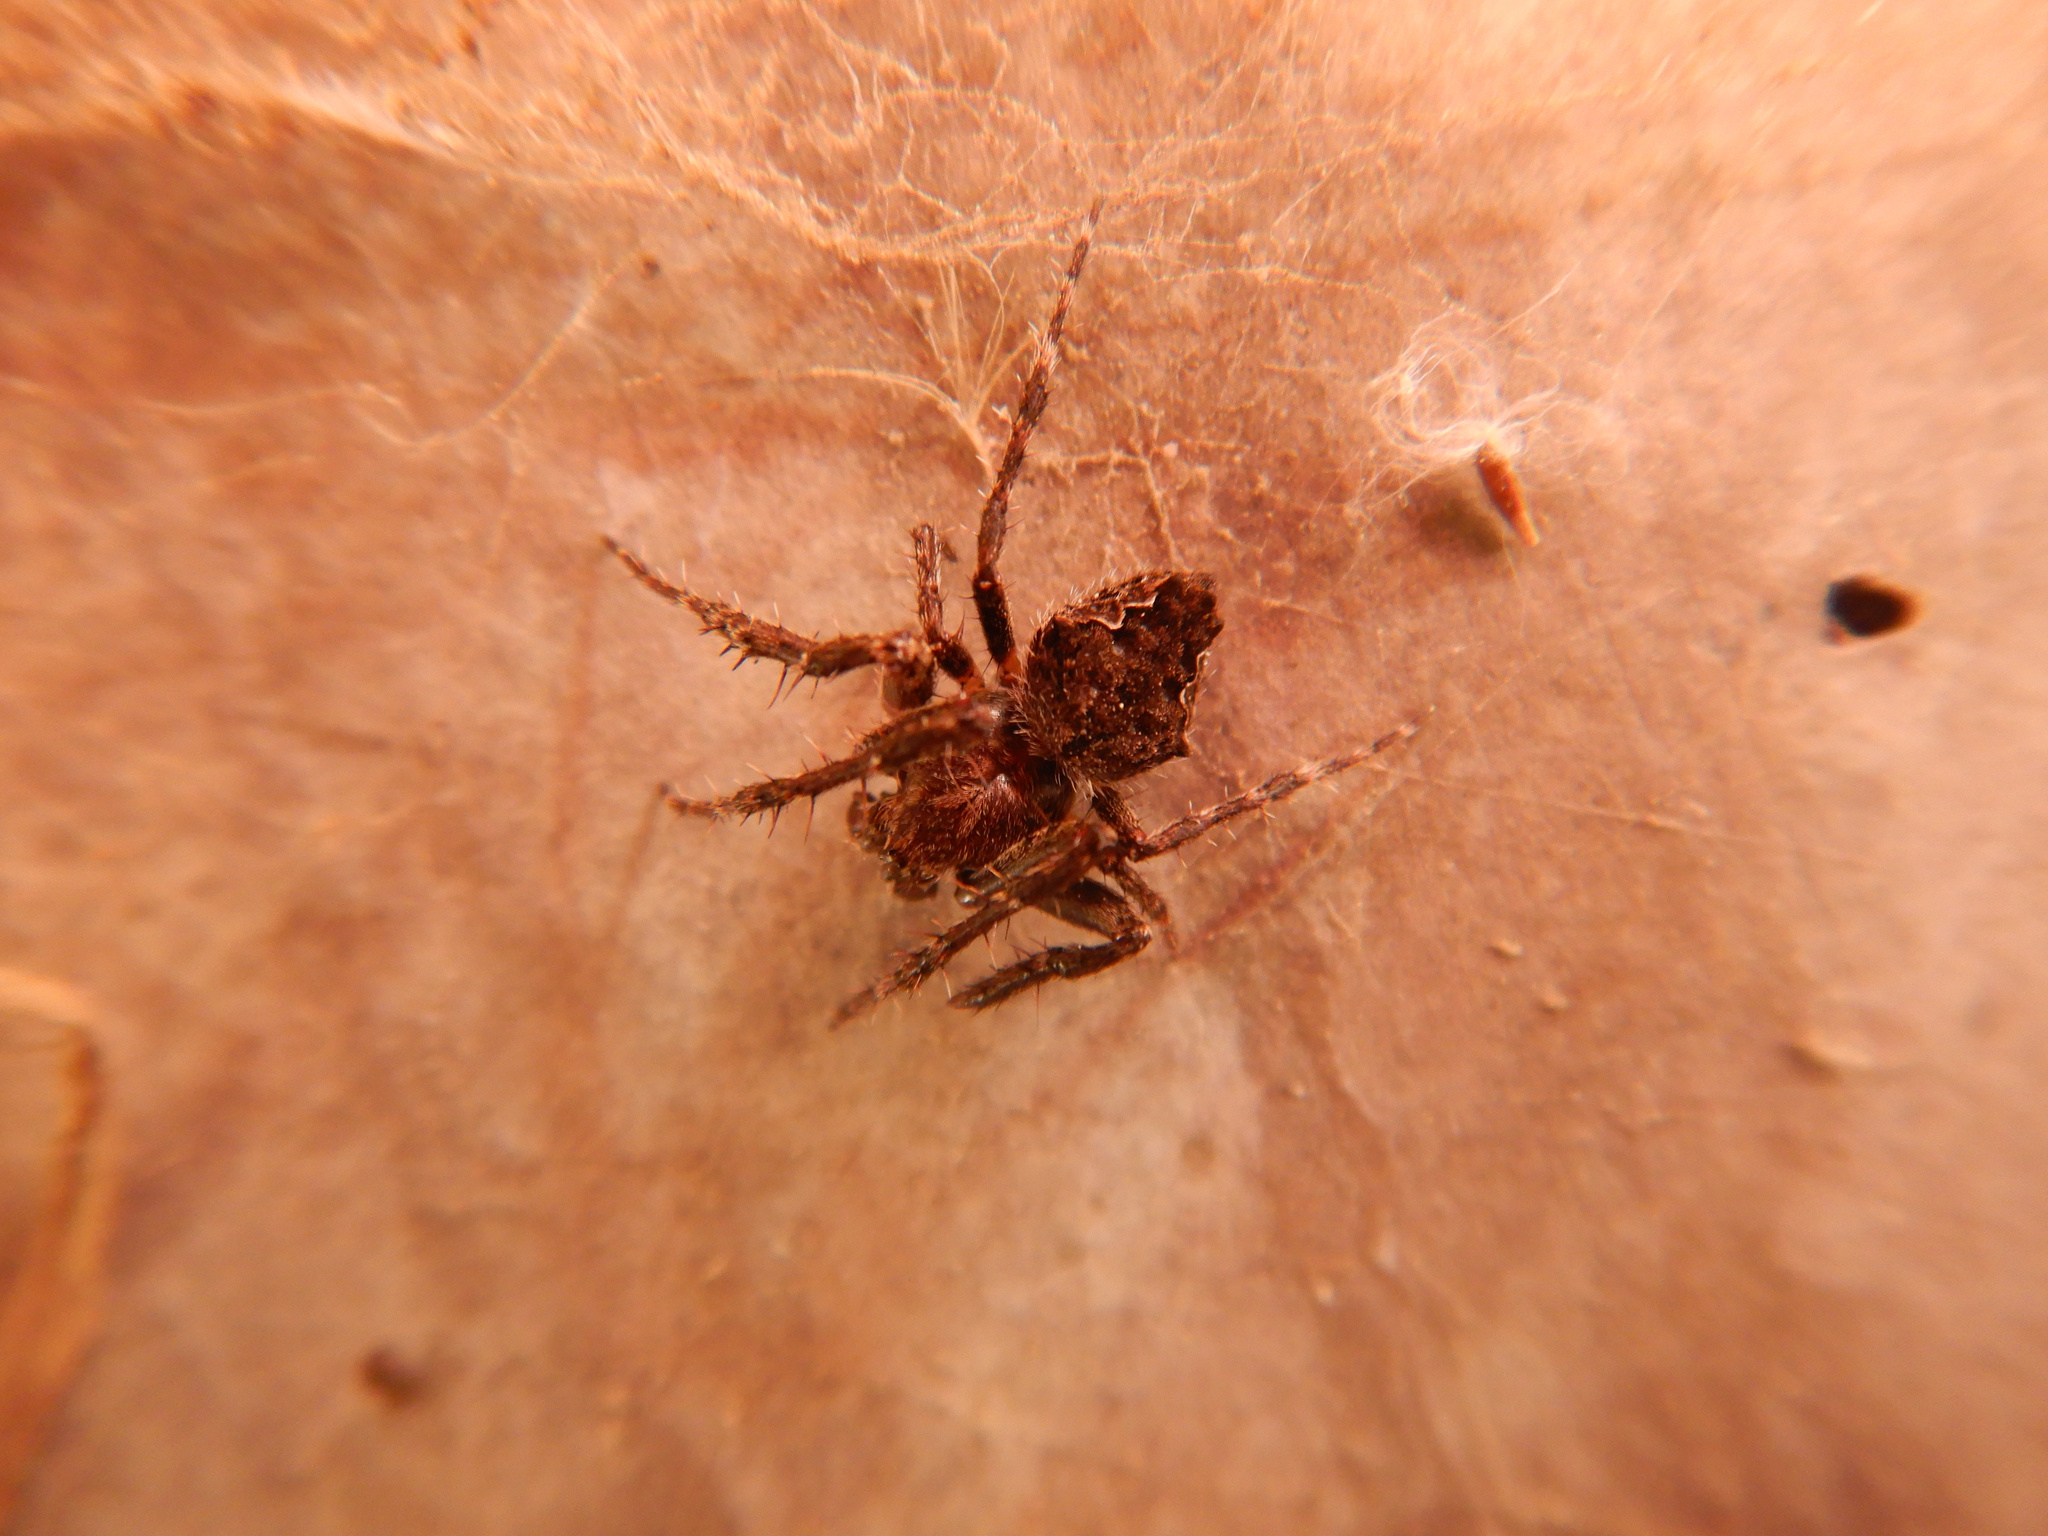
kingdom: Animalia
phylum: Arthropoda
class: Arachnida
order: Araneae
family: Araneidae
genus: Eriophora
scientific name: Eriophora pustulosa
